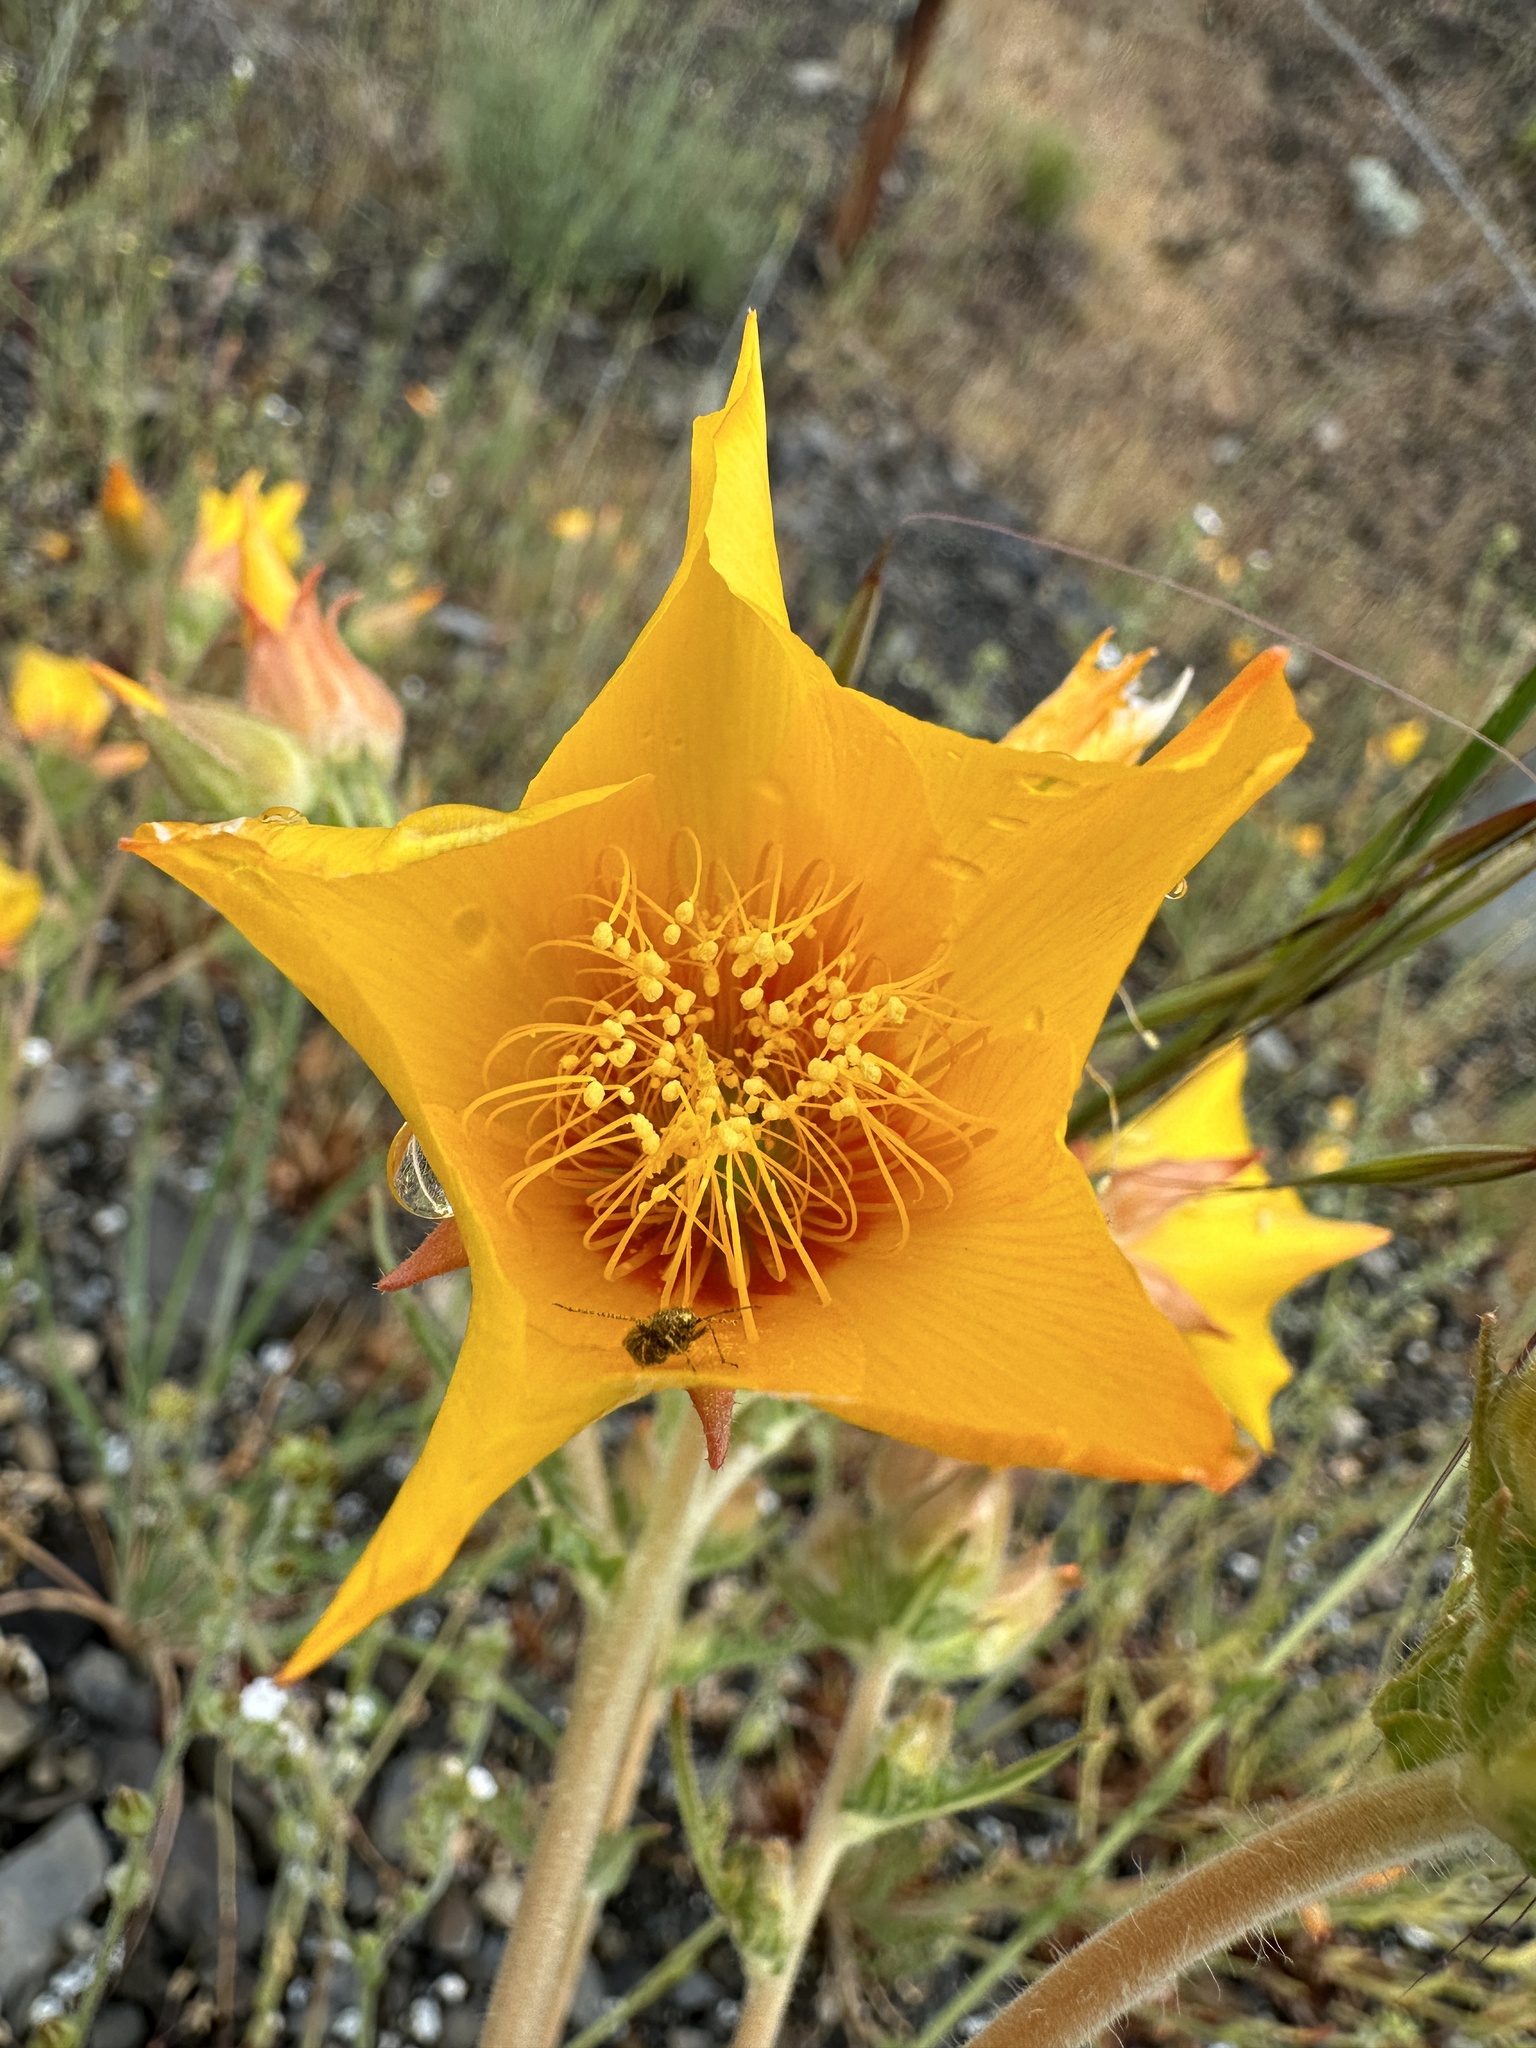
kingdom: Plantae
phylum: Tracheophyta
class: Magnoliopsida
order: Cornales
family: Loasaceae
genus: Mentzelia
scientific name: Mentzelia lindleyi
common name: Golden bartonia
